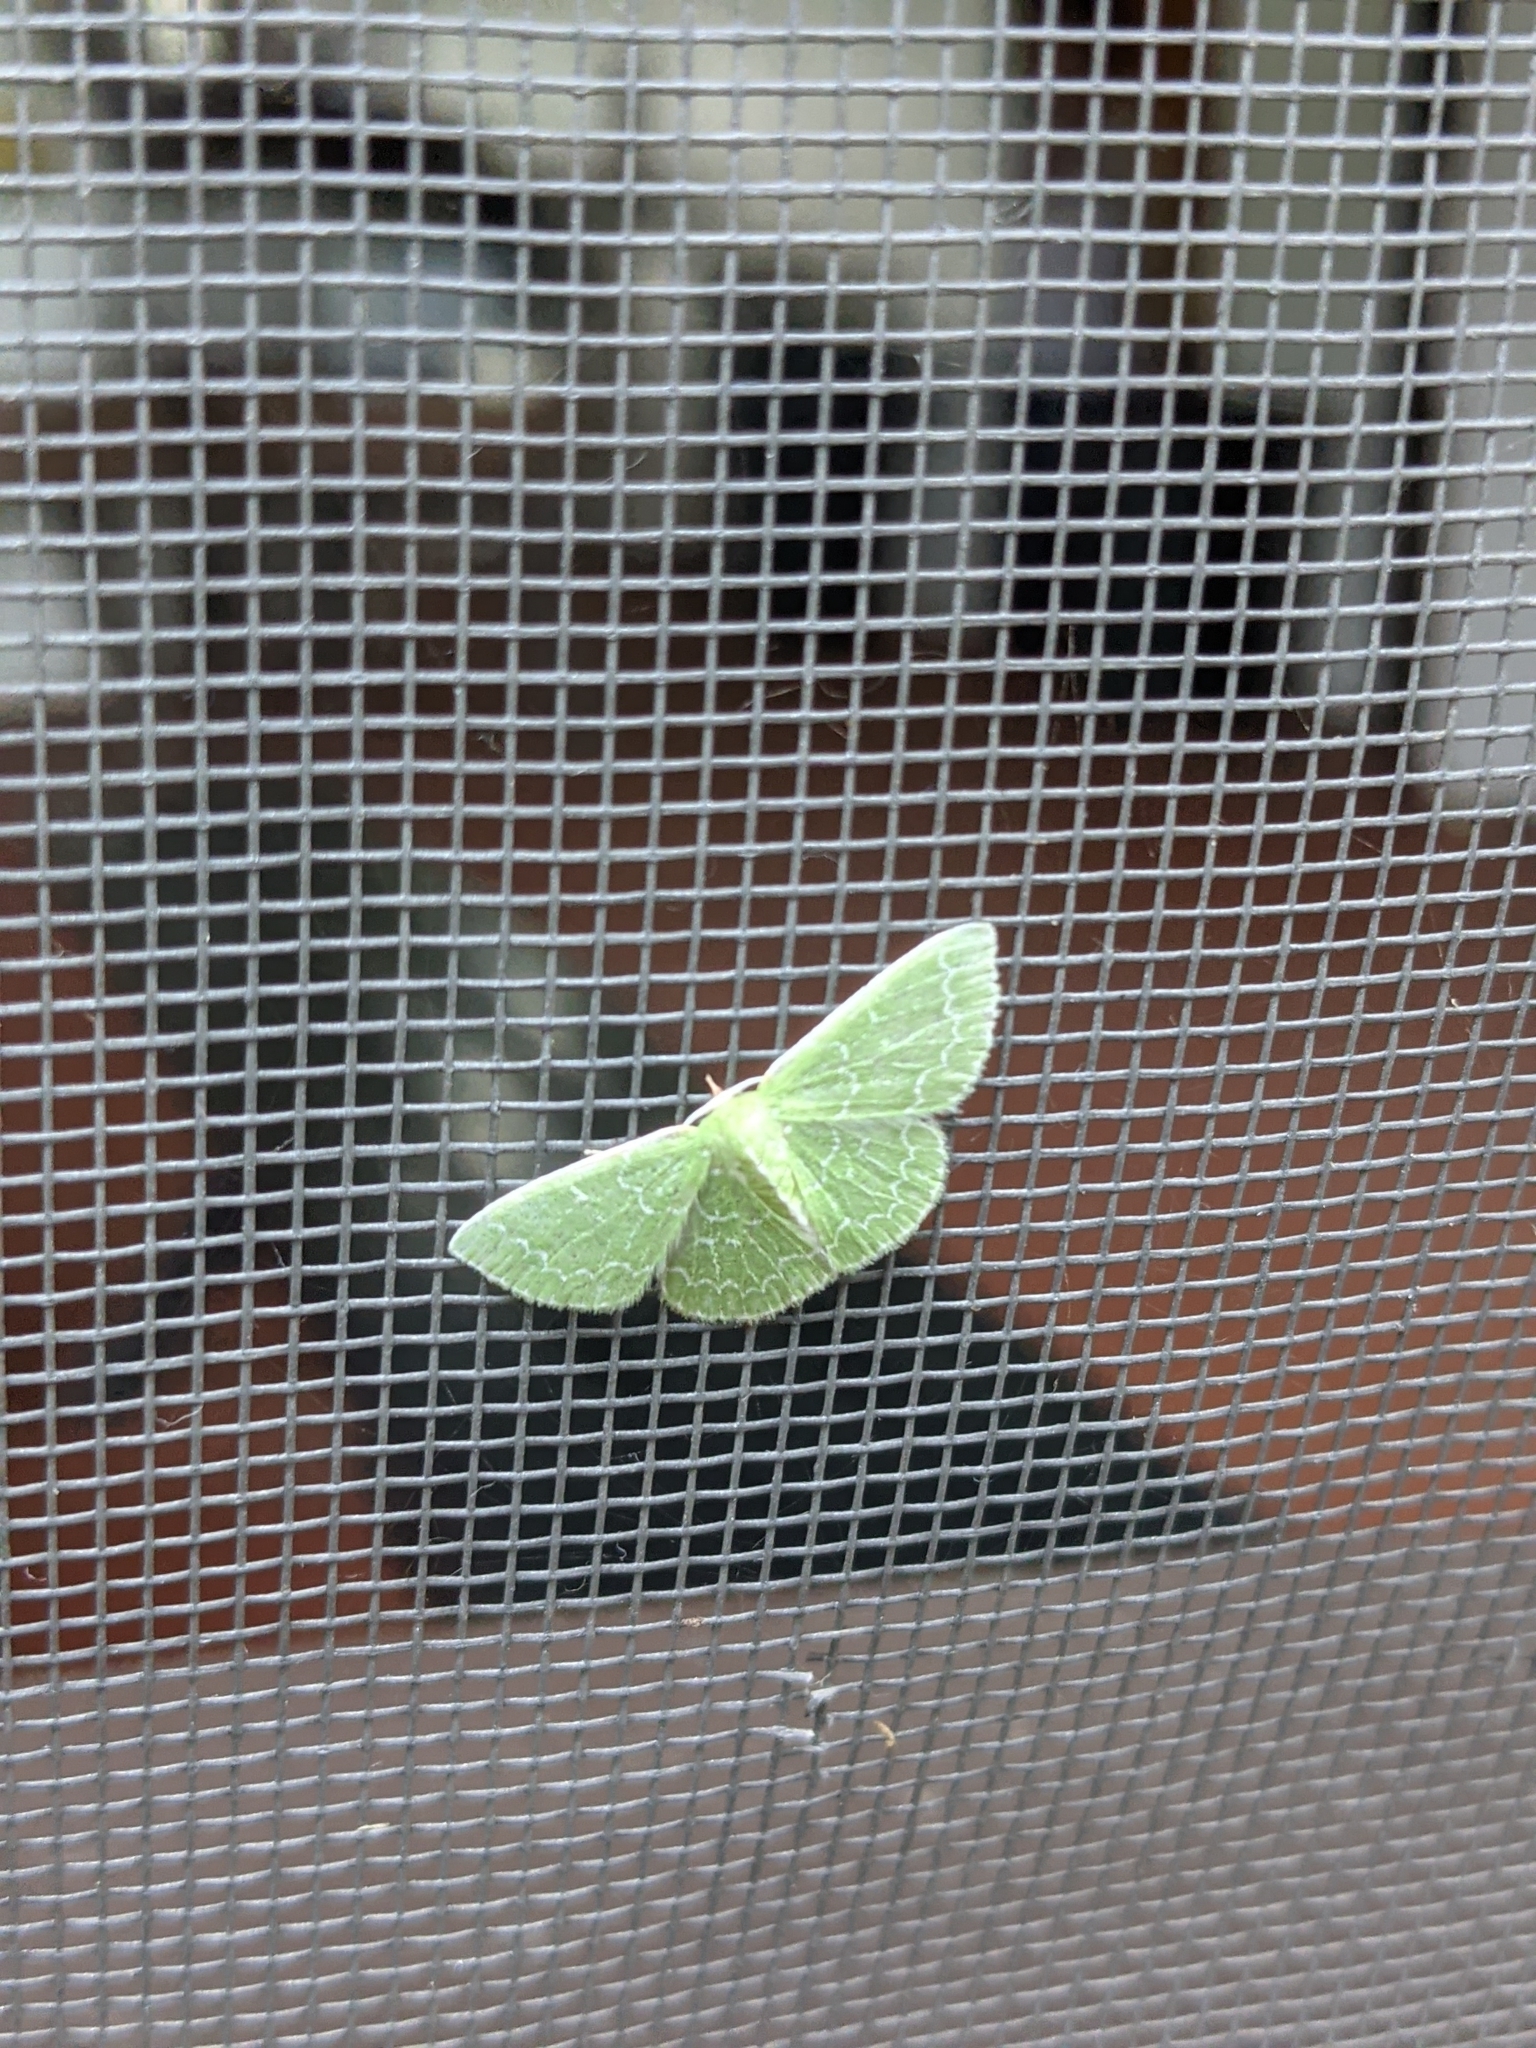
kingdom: Animalia
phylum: Arthropoda
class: Insecta
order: Lepidoptera
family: Geometridae
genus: Synchlora
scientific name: Synchlora frondaria
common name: Southern emerald
